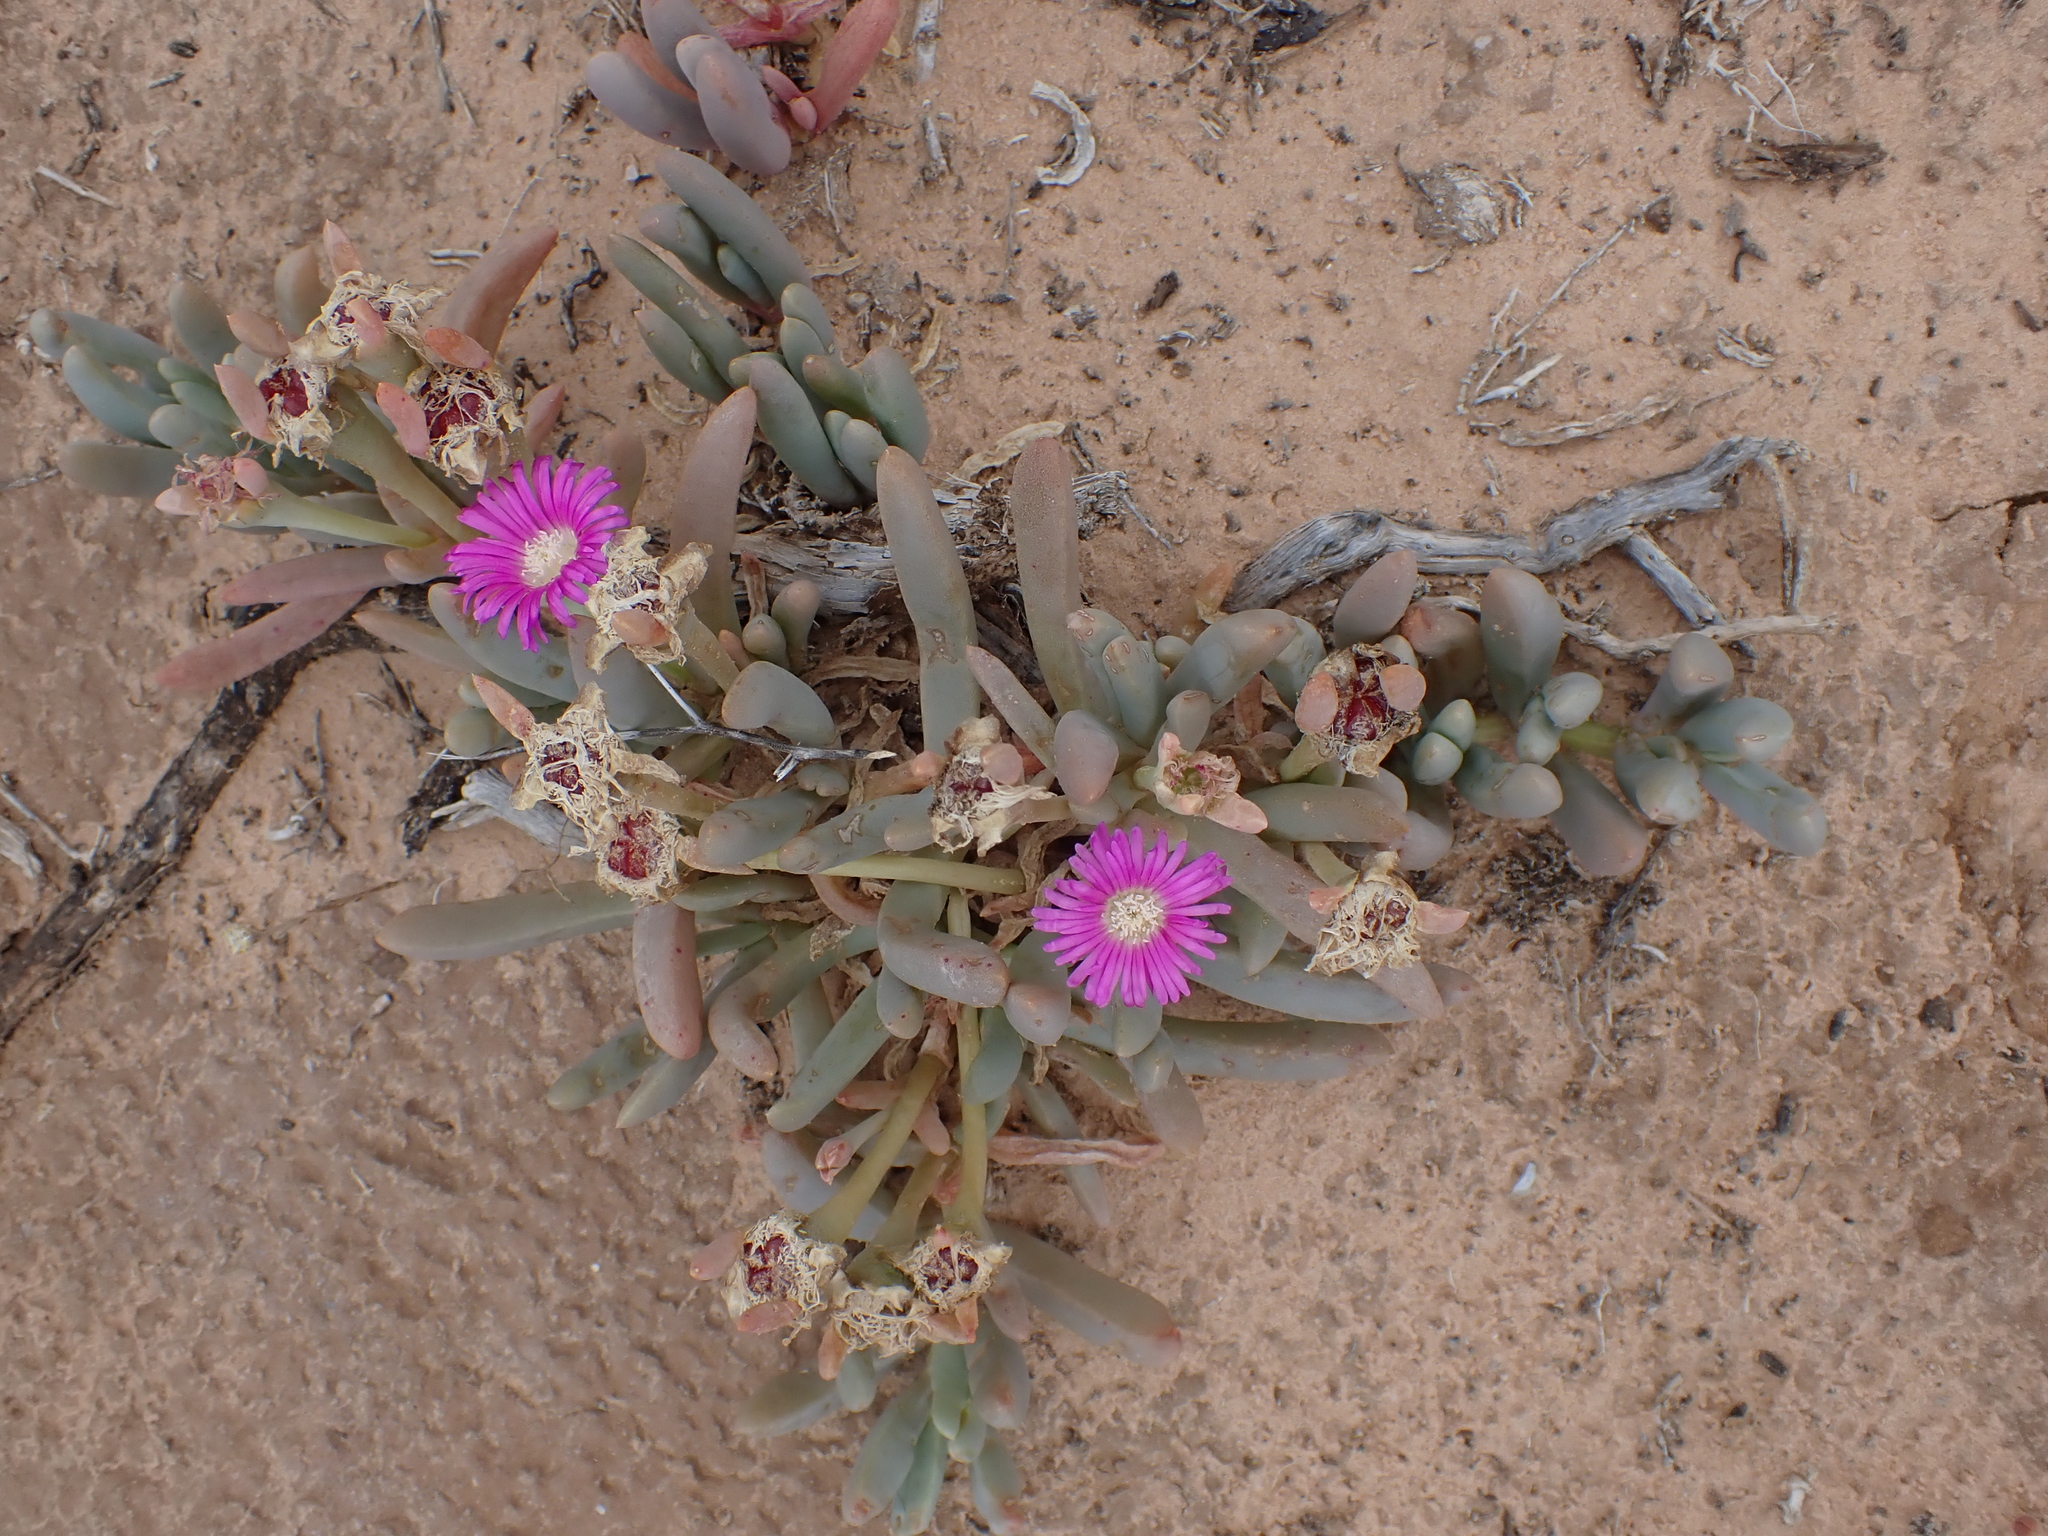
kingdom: Plantae
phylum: Tracheophyta
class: Magnoliopsida
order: Caryophyllales
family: Aizoaceae
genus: Disphyma
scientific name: Disphyma clavellatum
